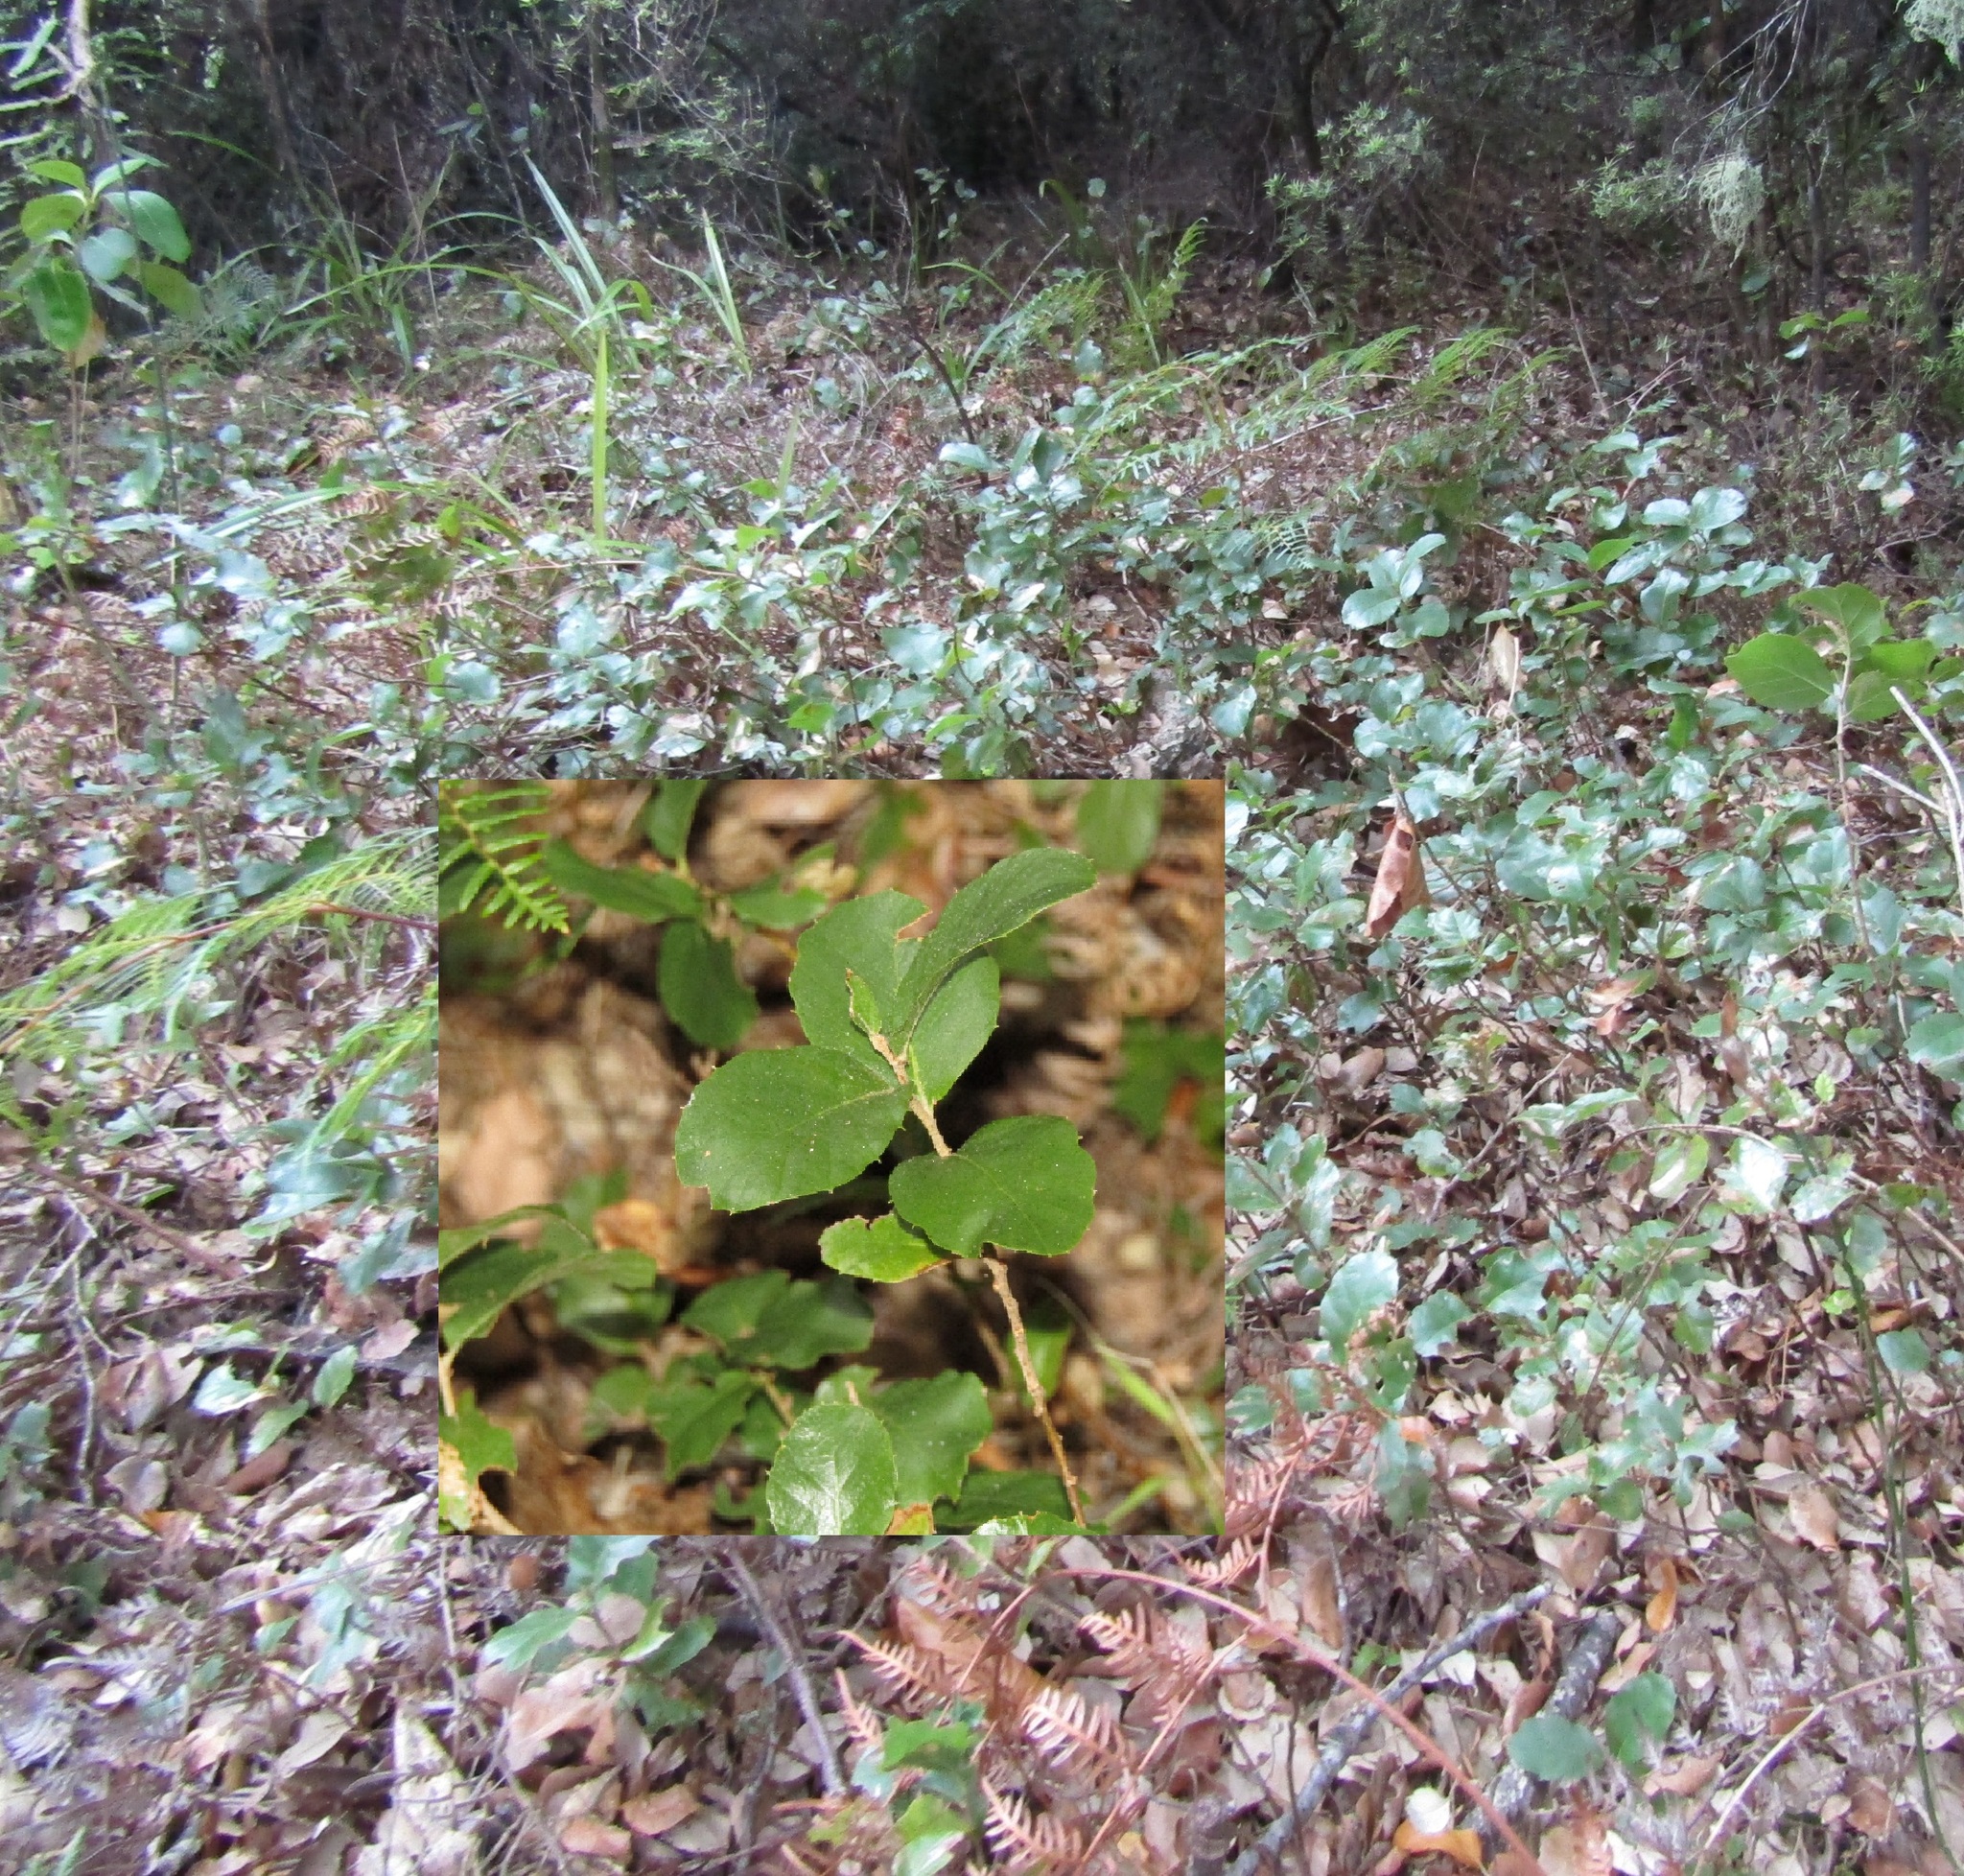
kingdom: Plantae
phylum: Tracheophyta
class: Magnoliopsida
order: Fagales
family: Fagaceae
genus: Quercus
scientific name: Quercus suber
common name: Cork oak
